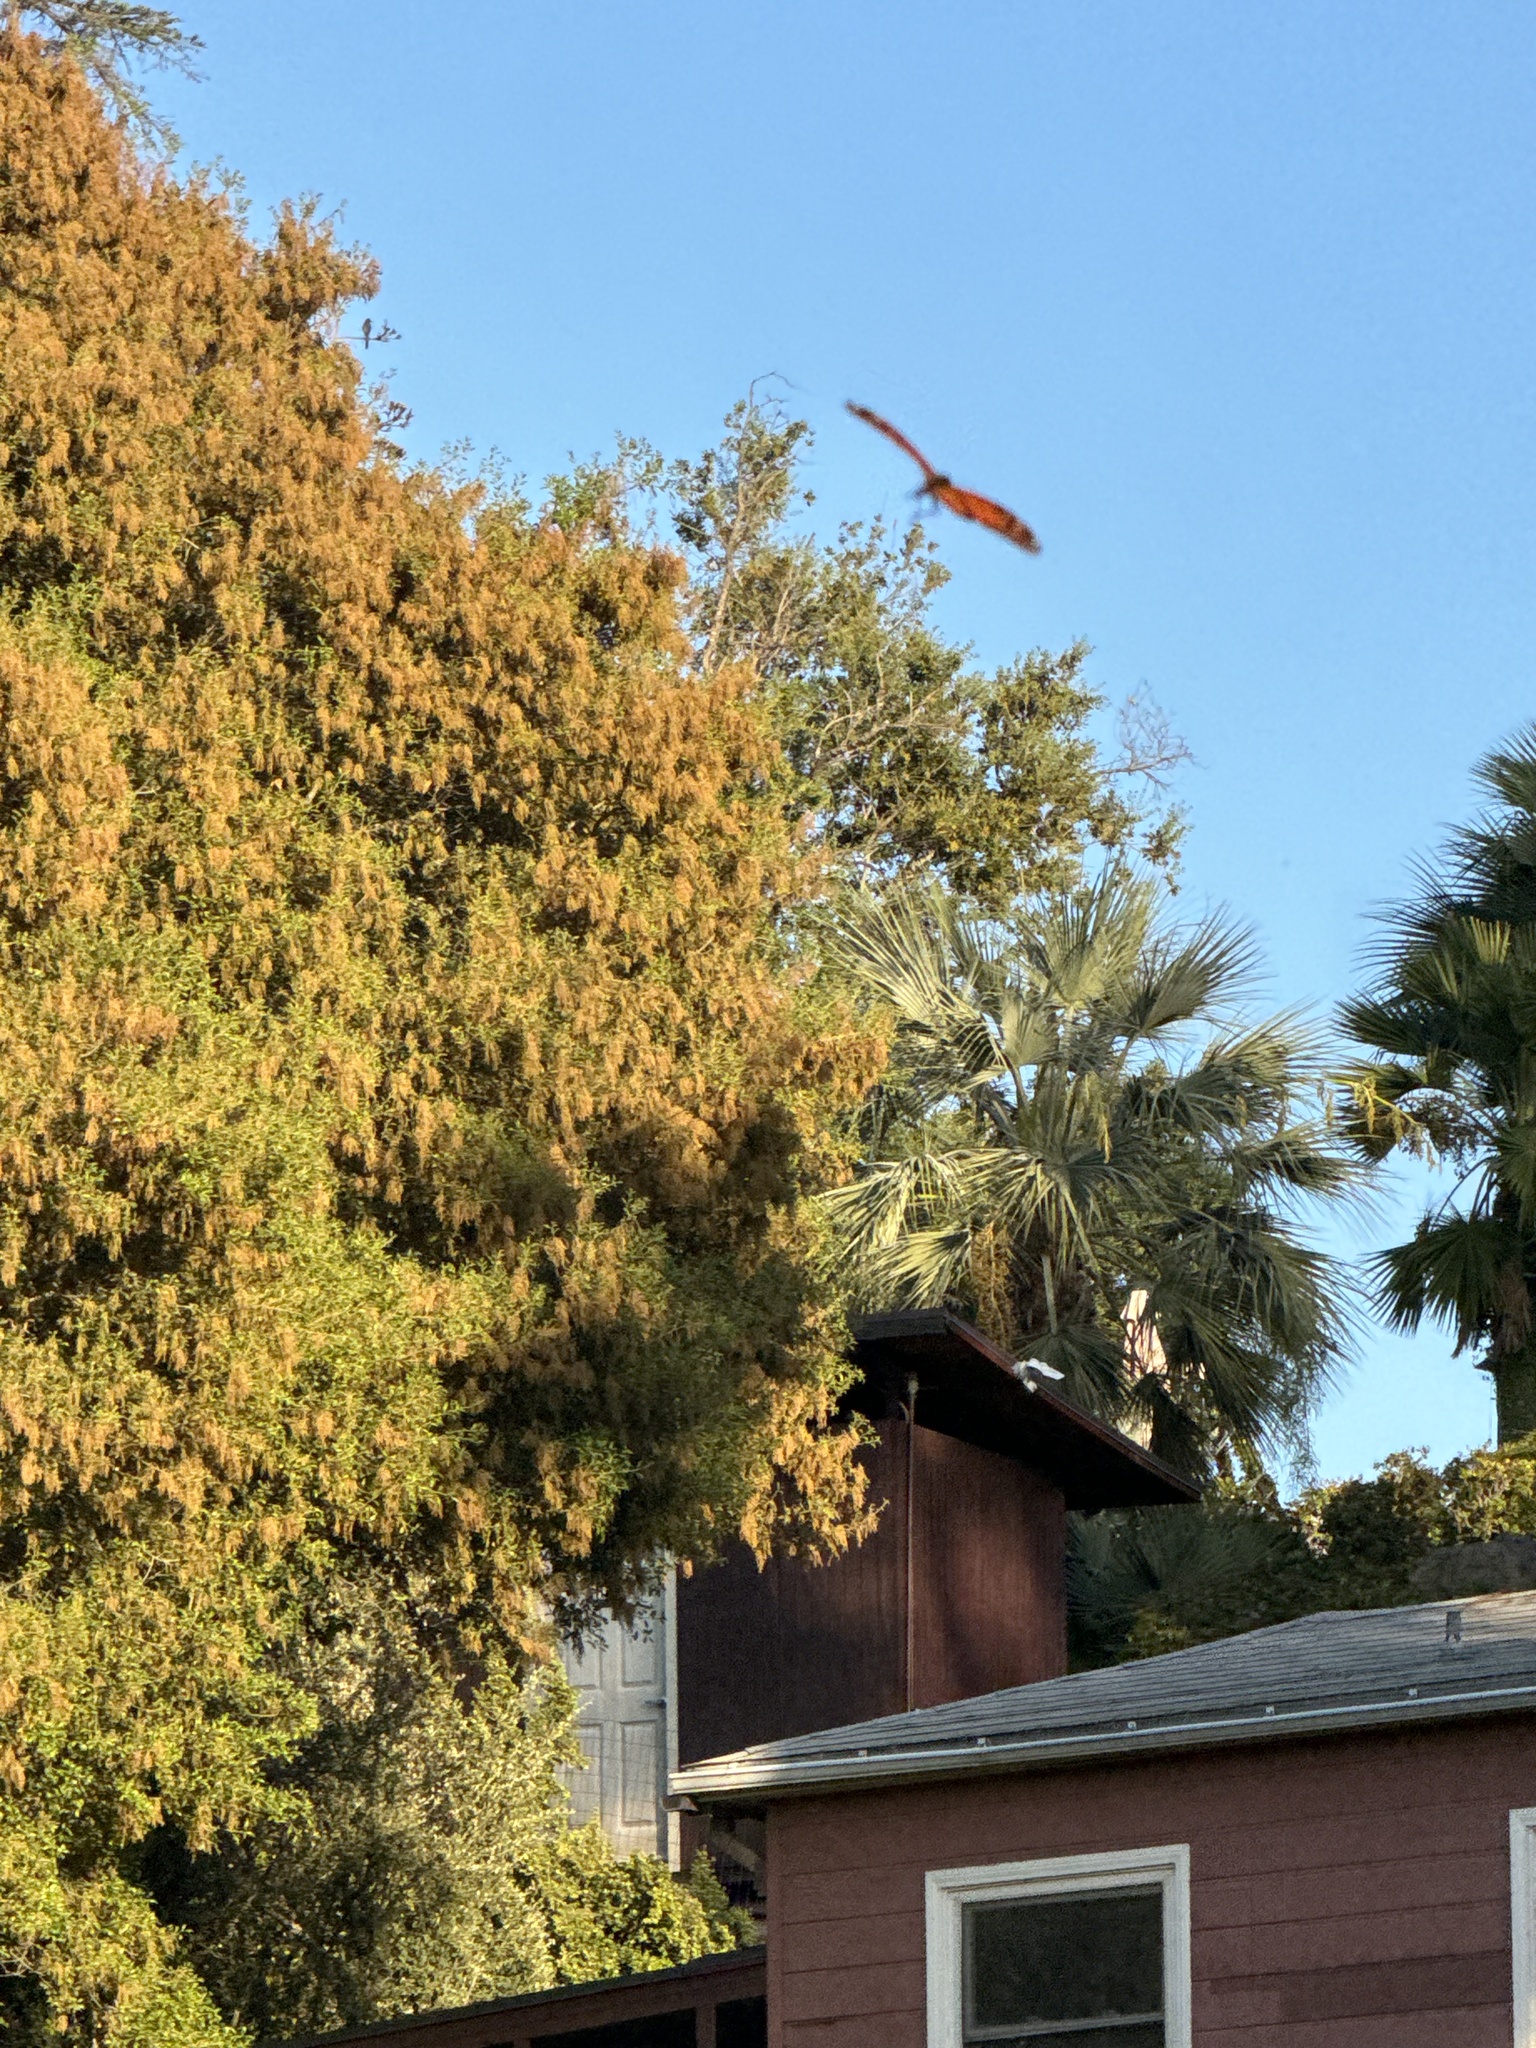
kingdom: Animalia
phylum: Arthropoda
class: Insecta
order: Lepidoptera
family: Nymphalidae
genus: Danaus
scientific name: Danaus plexippus
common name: Monarch
